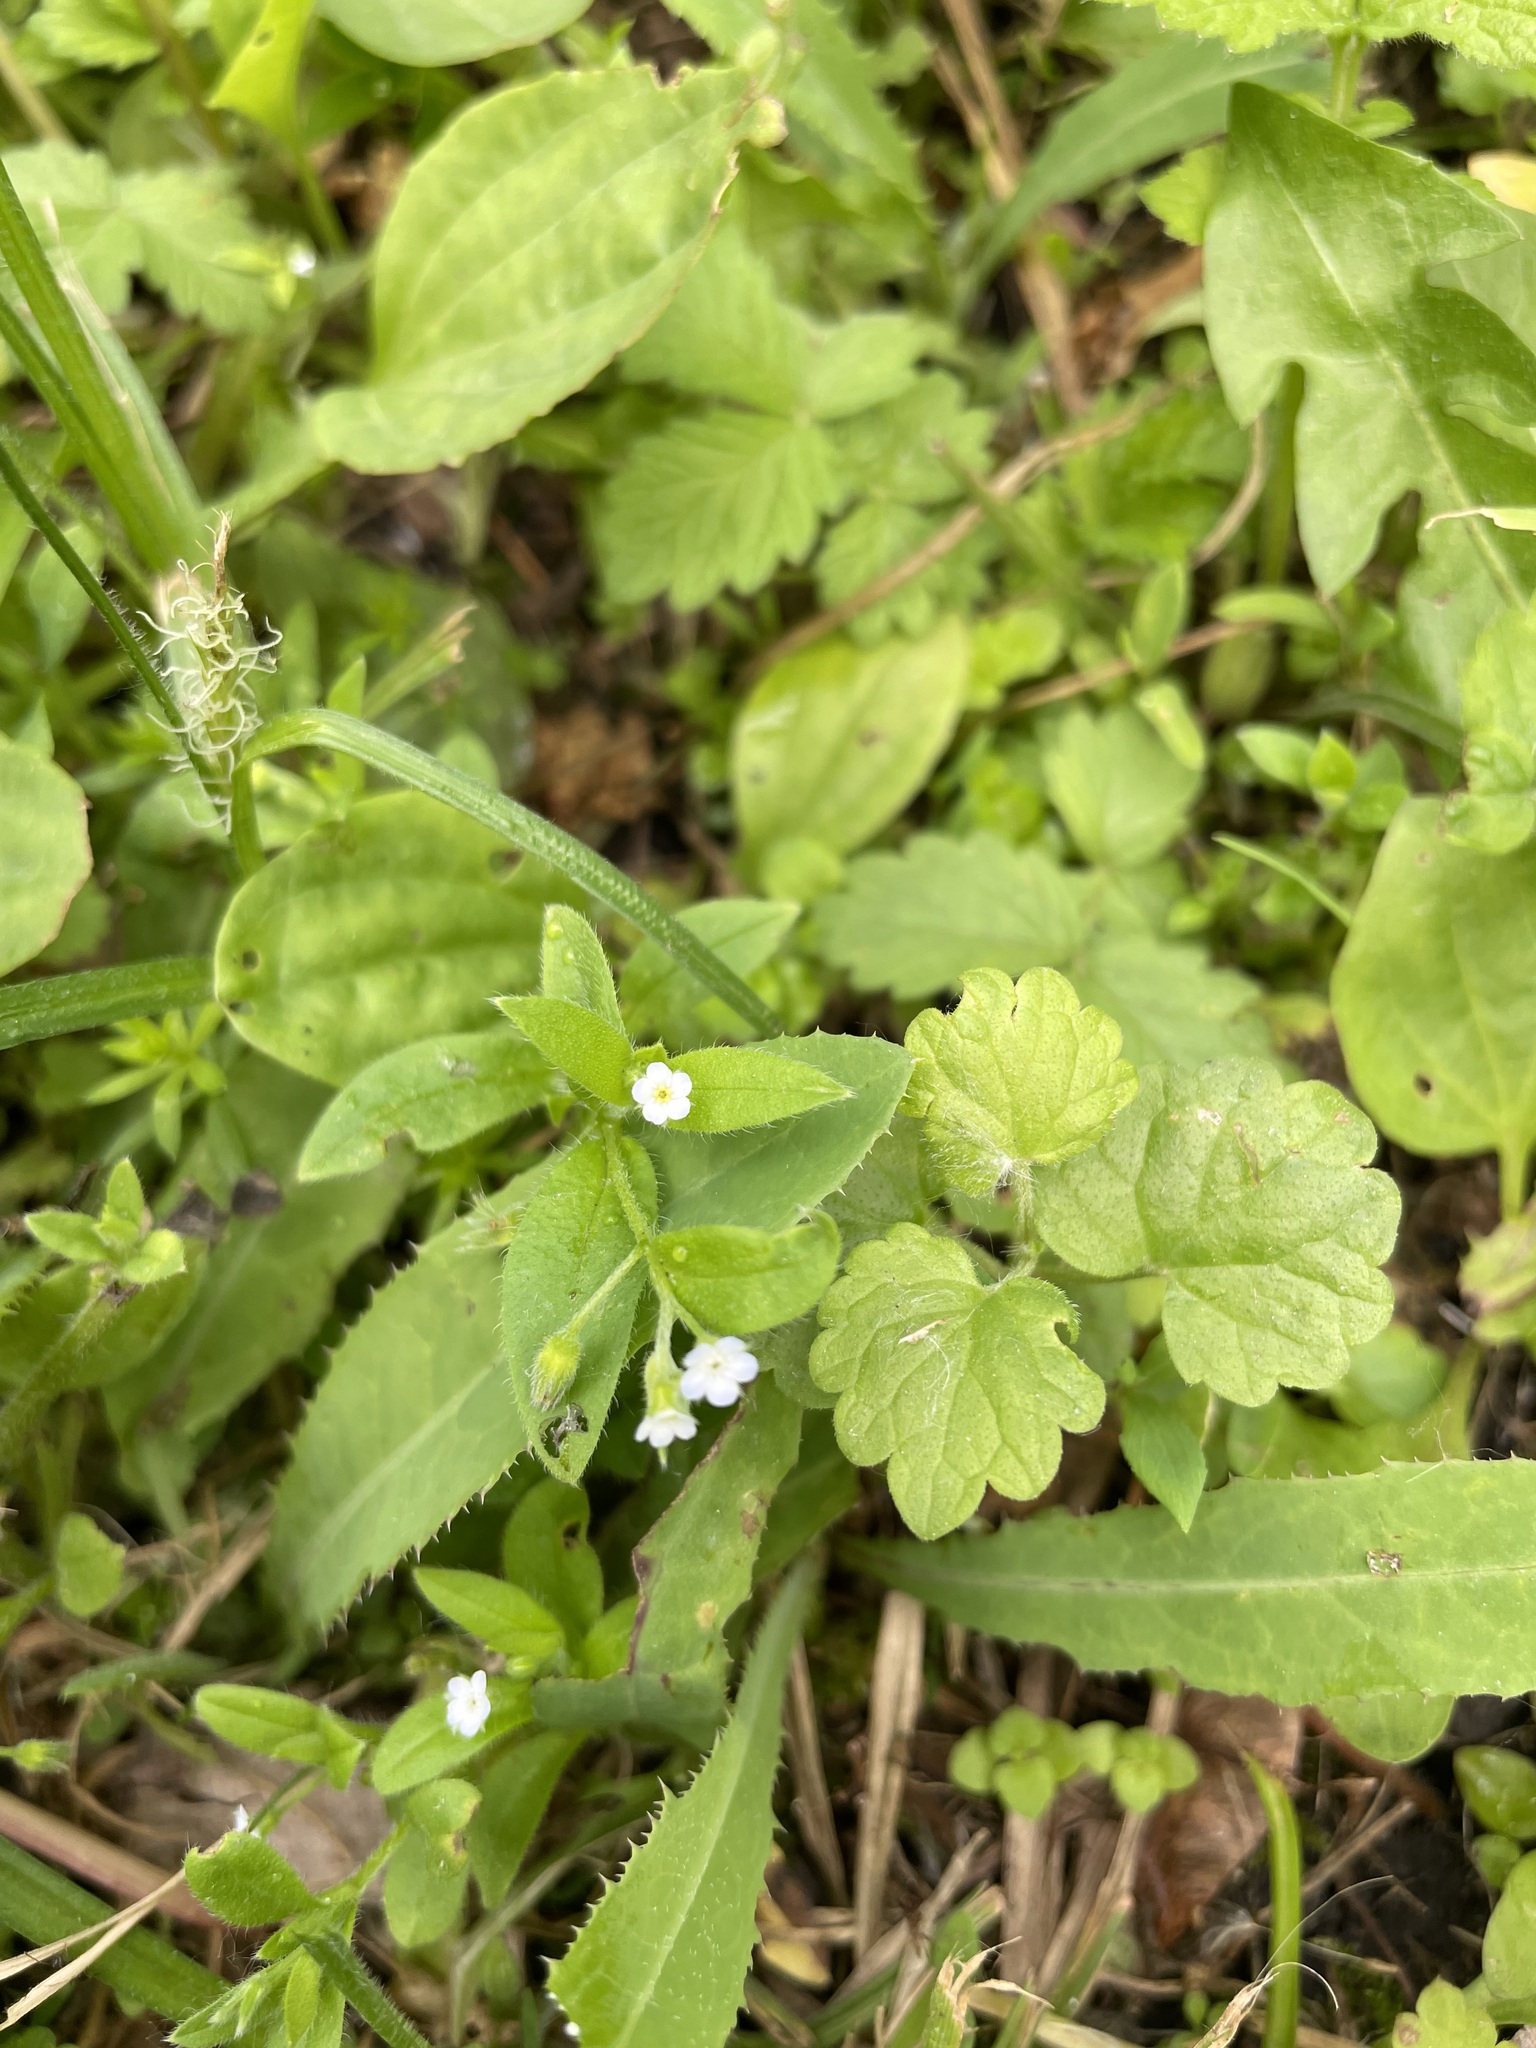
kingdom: Plantae
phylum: Tracheophyta
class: Magnoliopsida
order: Boraginales
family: Boraginaceae
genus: Myosotis
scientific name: Myosotis sparsiflora
